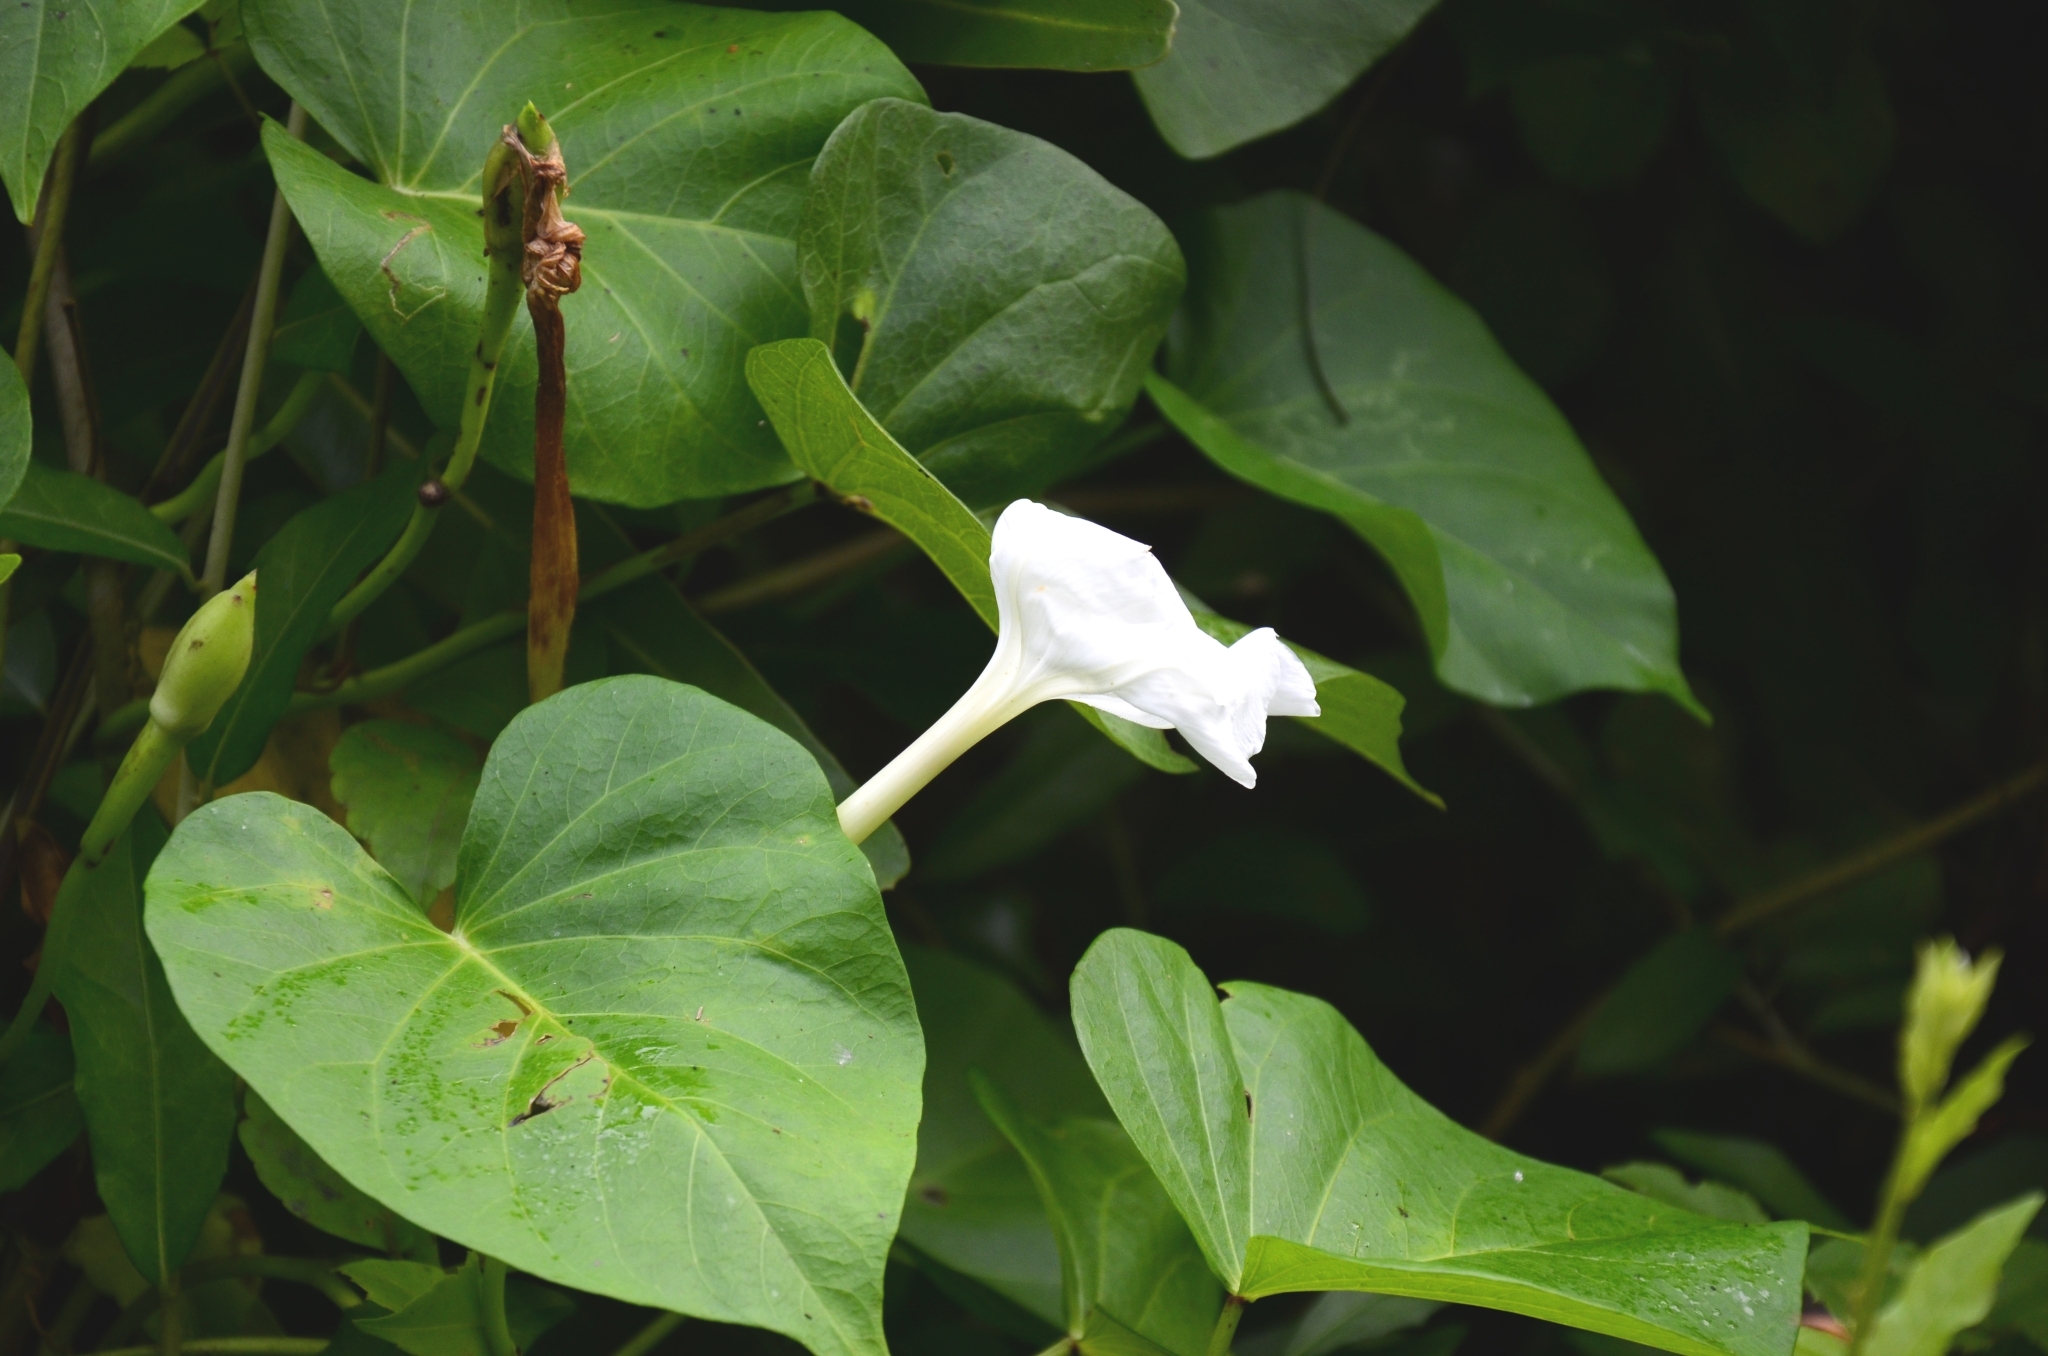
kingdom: Plantae
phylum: Tracheophyta
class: Magnoliopsida
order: Solanales
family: Convolvulaceae
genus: Ipomoea
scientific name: Ipomoea alba
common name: Moonflower
